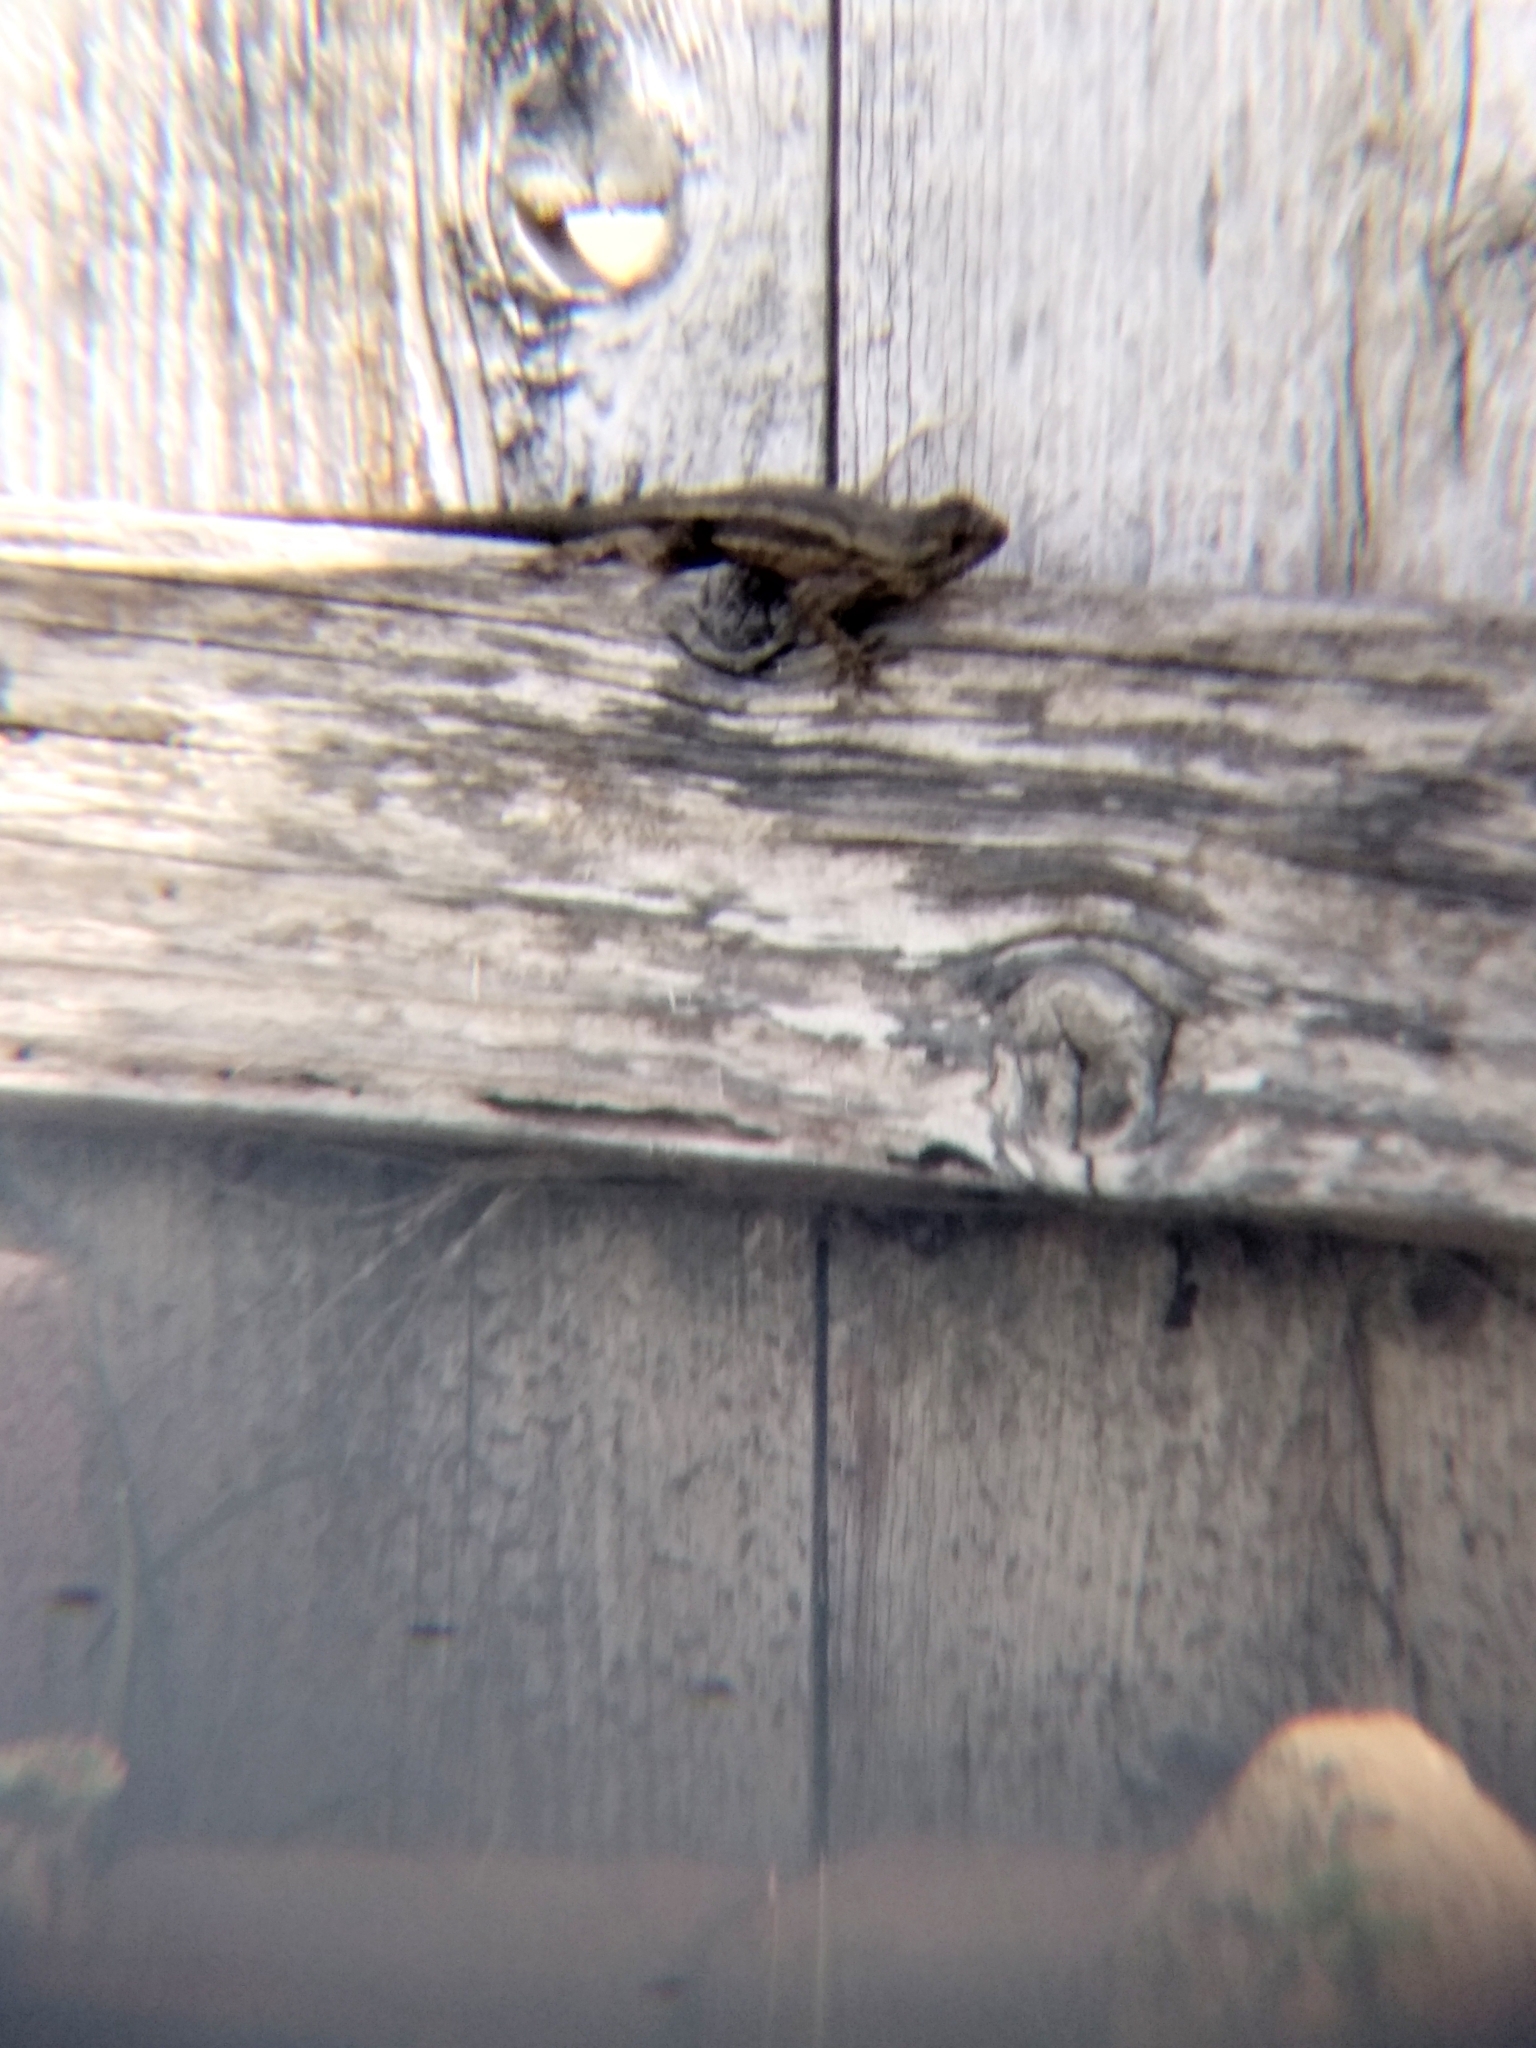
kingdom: Animalia
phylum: Chordata
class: Squamata
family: Phrynosomatidae
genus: Sceloporus
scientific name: Sceloporus occidentalis
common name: Western fence lizard
